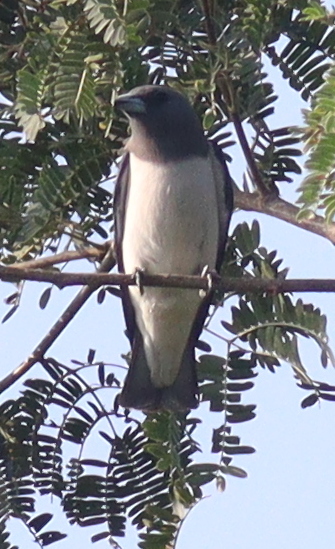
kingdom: Animalia
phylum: Chordata
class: Aves
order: Passeriformes
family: Artamidae
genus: Artamus
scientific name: Artamus leucoryn
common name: White-breasted woodswallow
